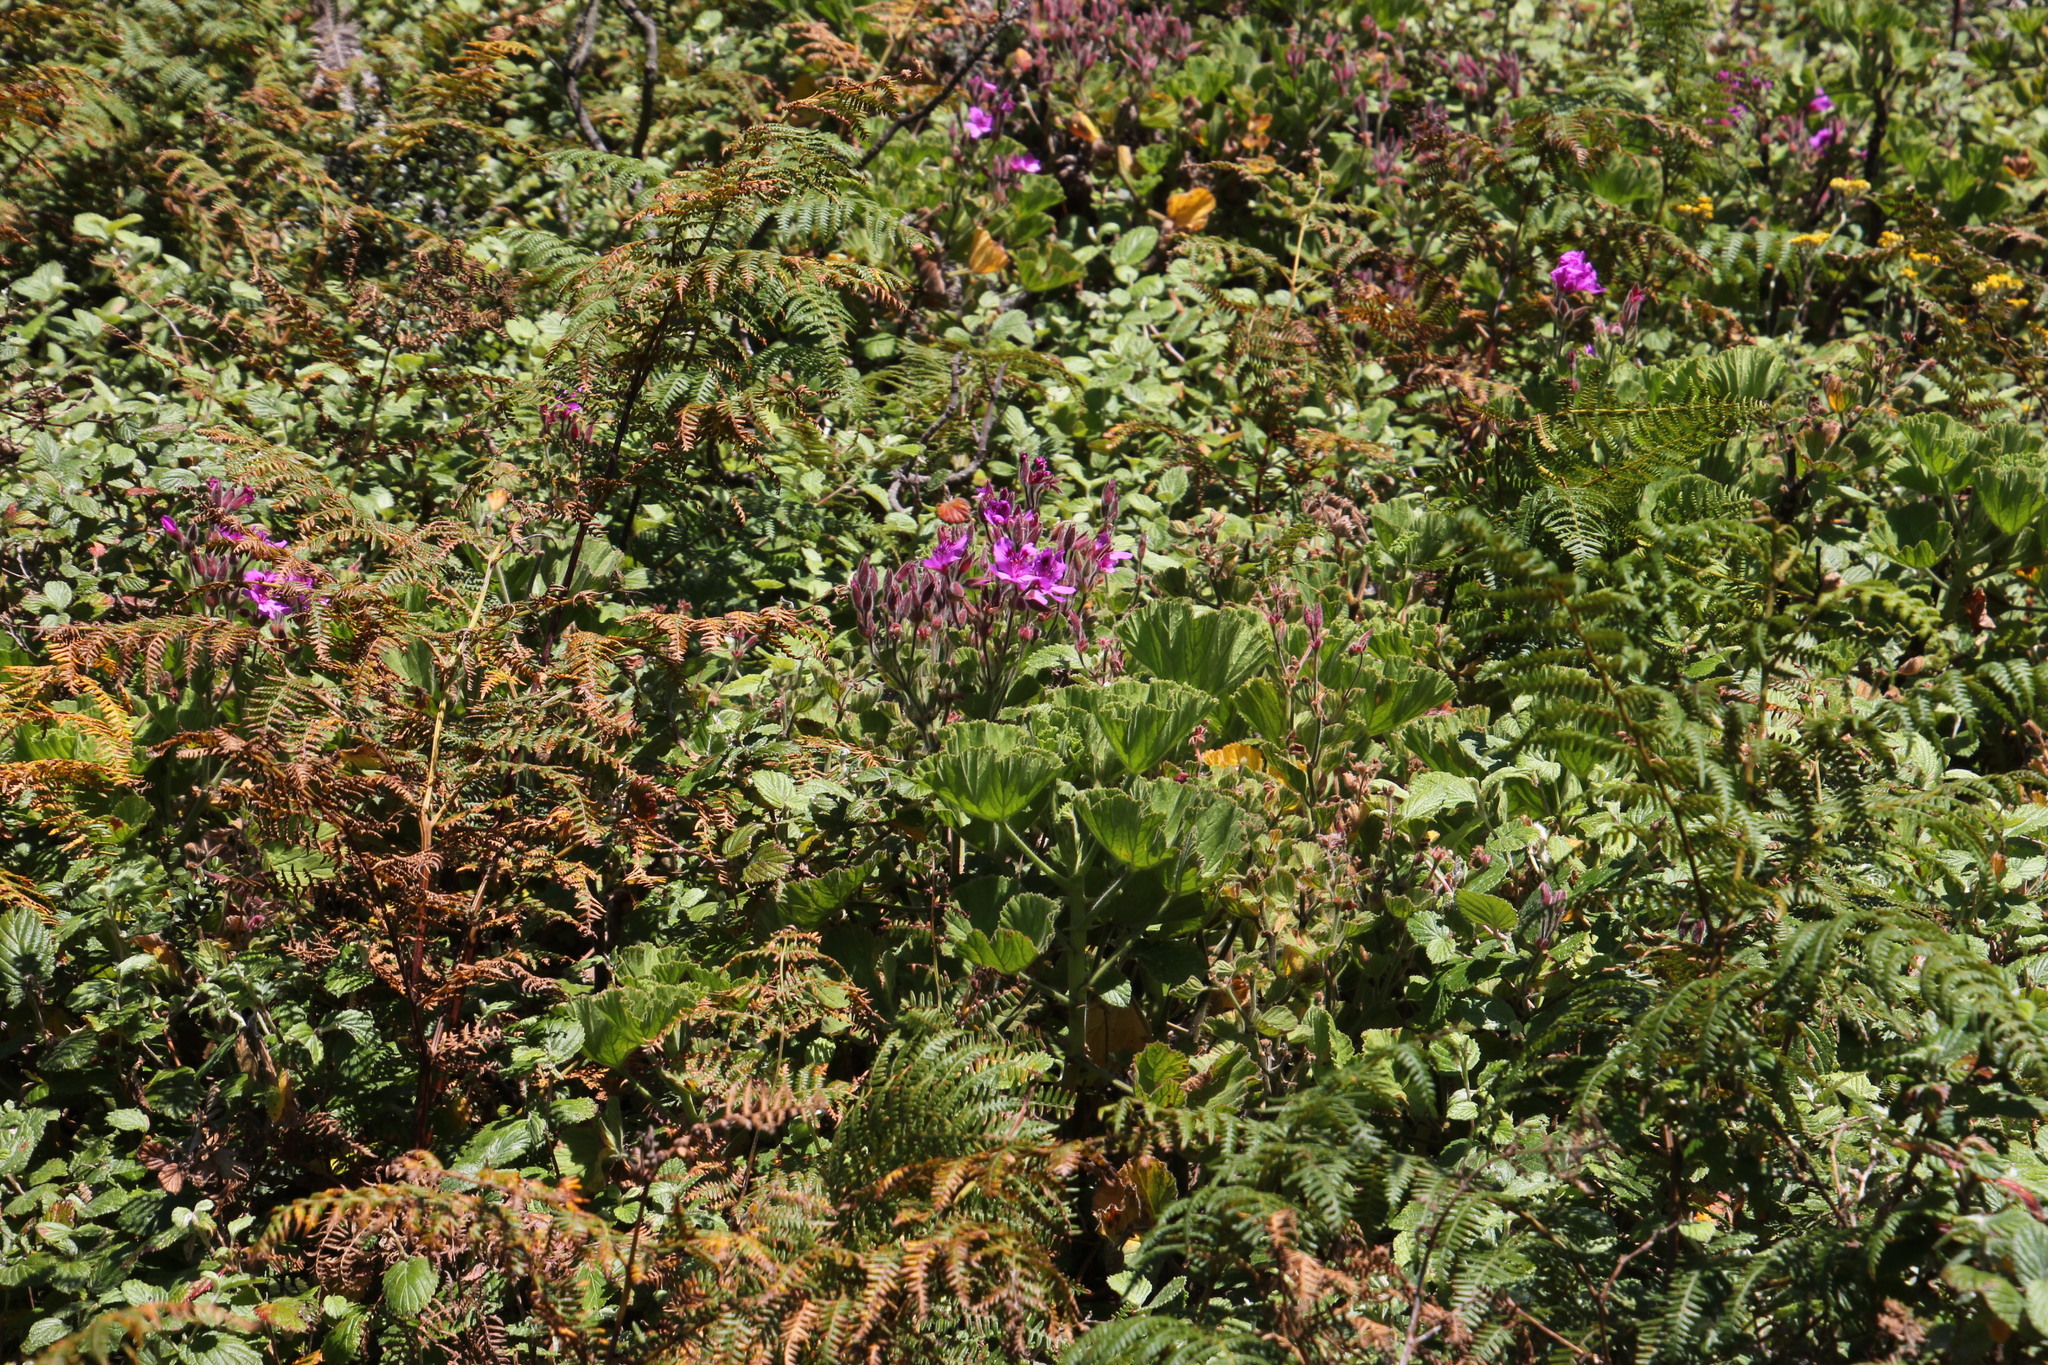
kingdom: Plantae
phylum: Tracheophyta
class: Magnoliopsida
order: Geraniales
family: Geraniaceae
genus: Pelargonium
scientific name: Pelargonium cucullatum
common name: Tree pelargonium
